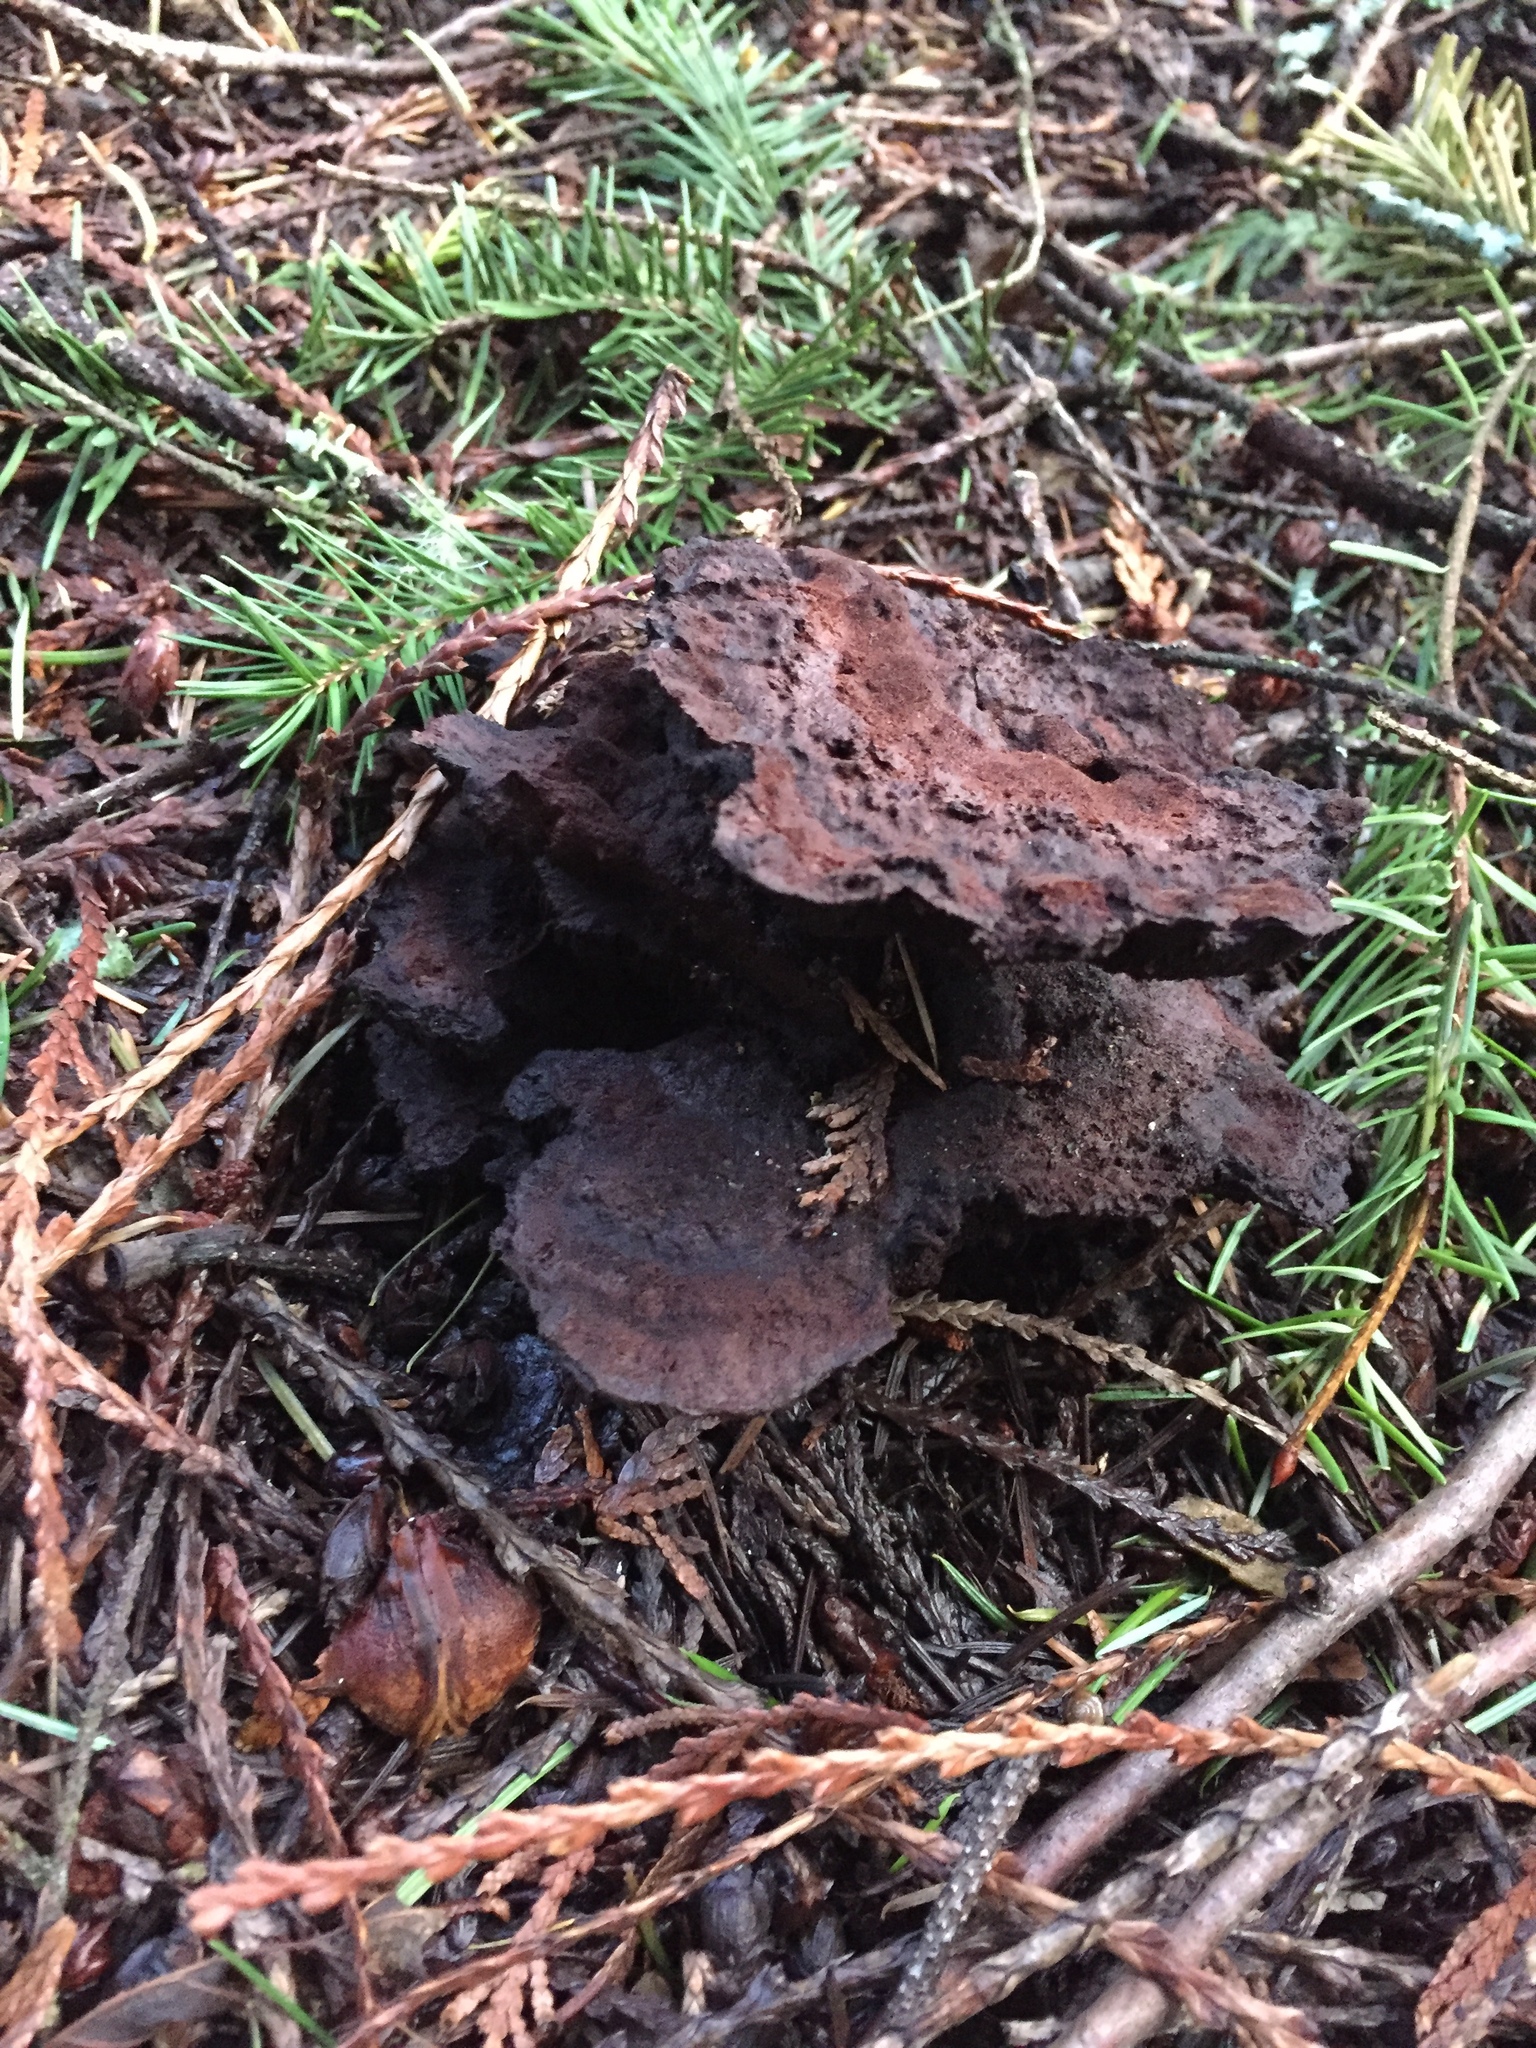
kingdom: Fungi
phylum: Basidiomycota
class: Agaricomycetes
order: Polyporales
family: Laetiporaceae
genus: Phaeolus
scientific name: Phaeolus schweinitzii
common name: Dyer's mazegill
